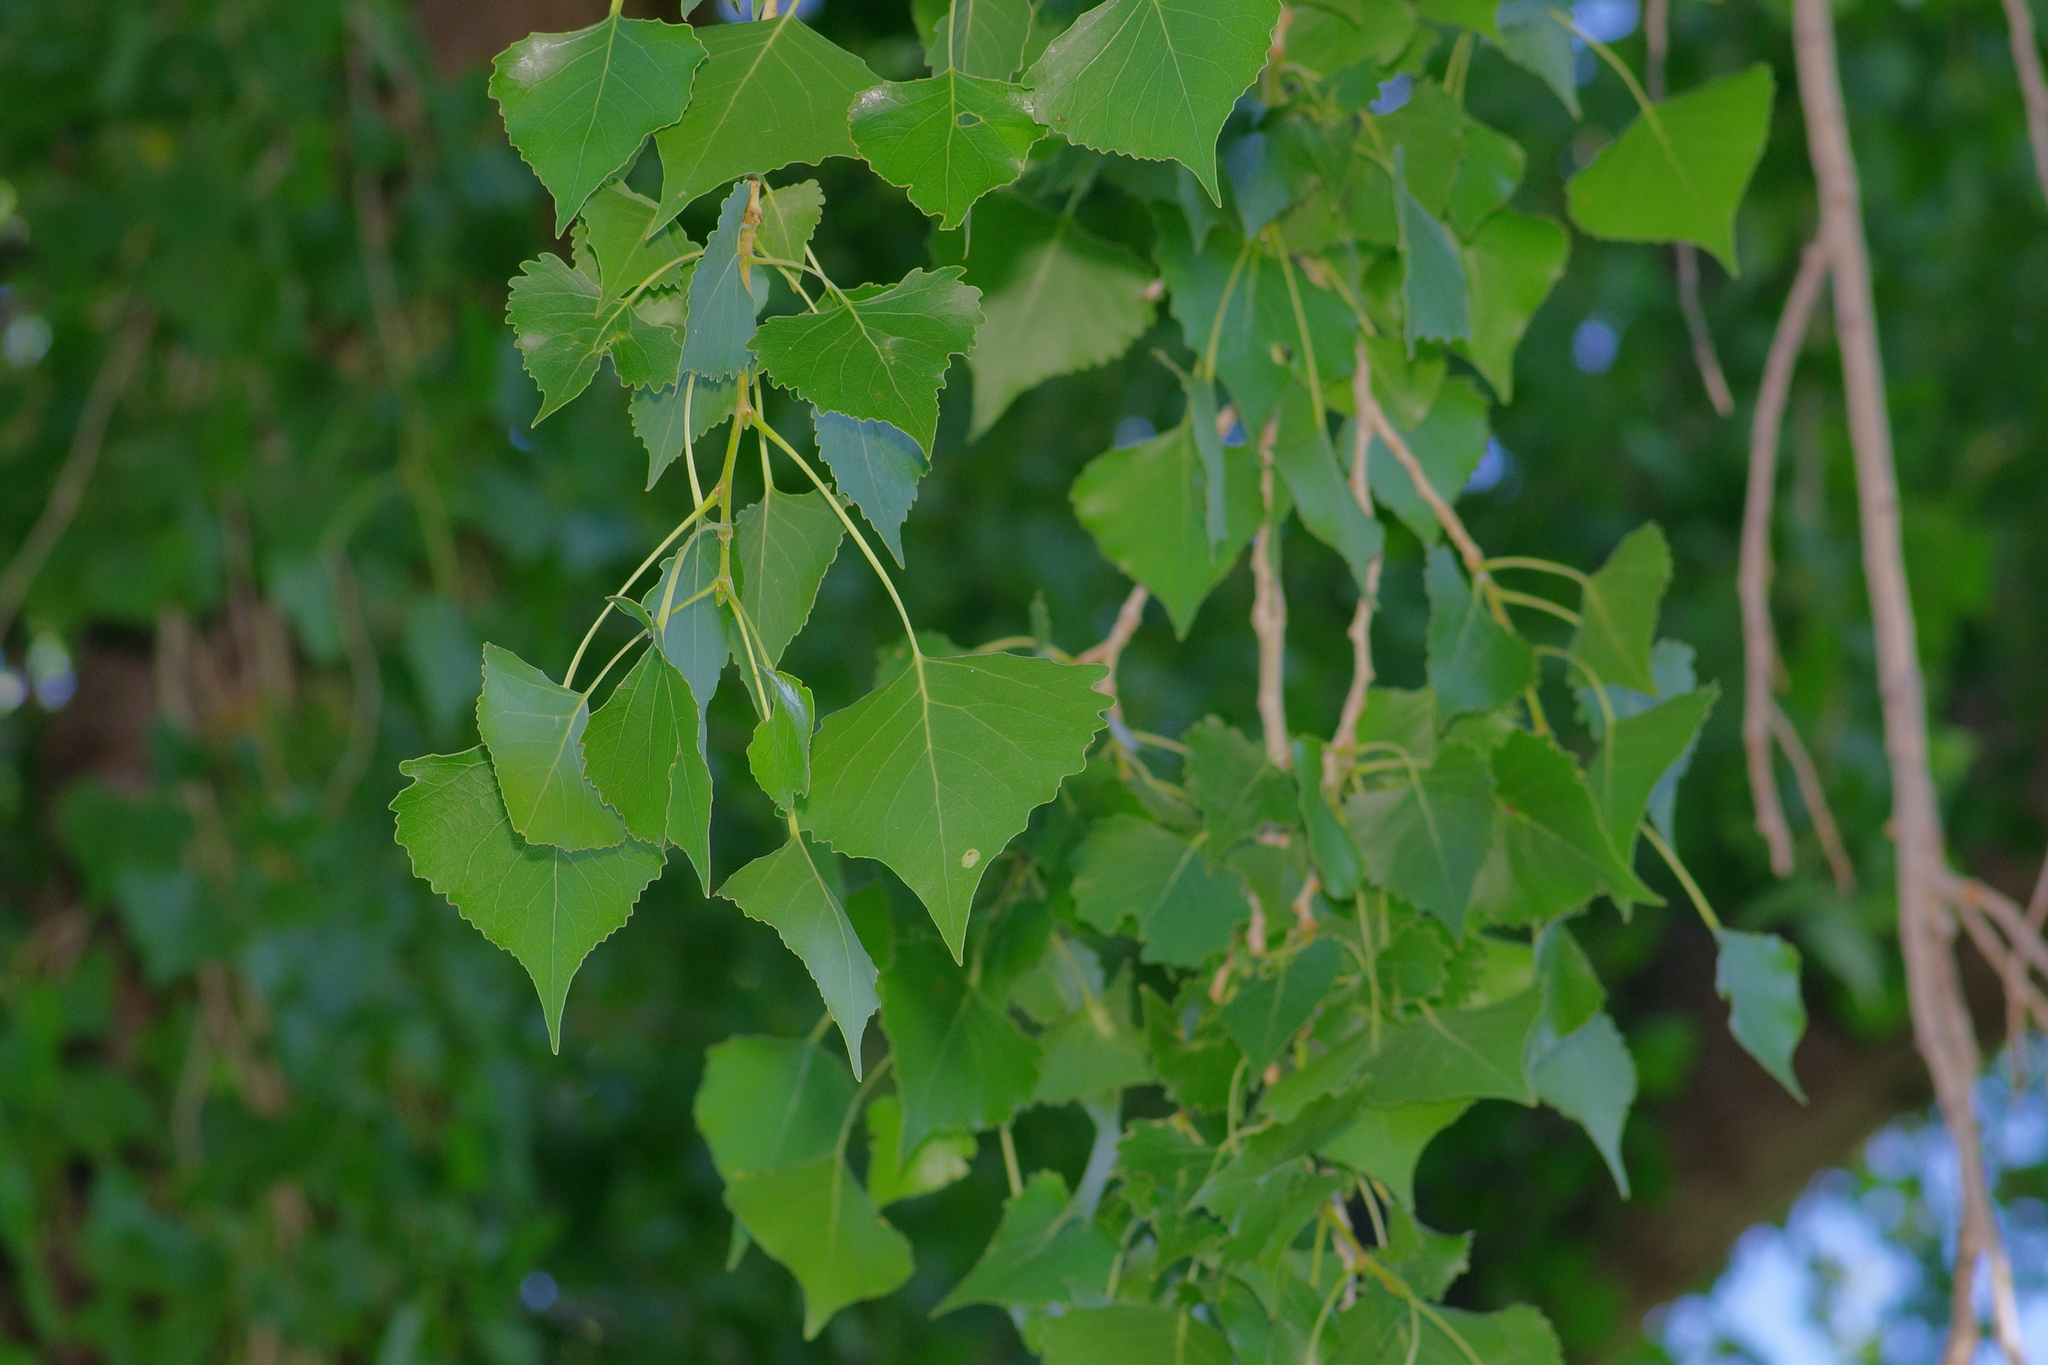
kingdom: Plantae
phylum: Tracheophyta
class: Magnoliopsida
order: Malpighiales
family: Salicaceae
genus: Populus
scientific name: Populus fremontii
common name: Fremont's cottonwood
